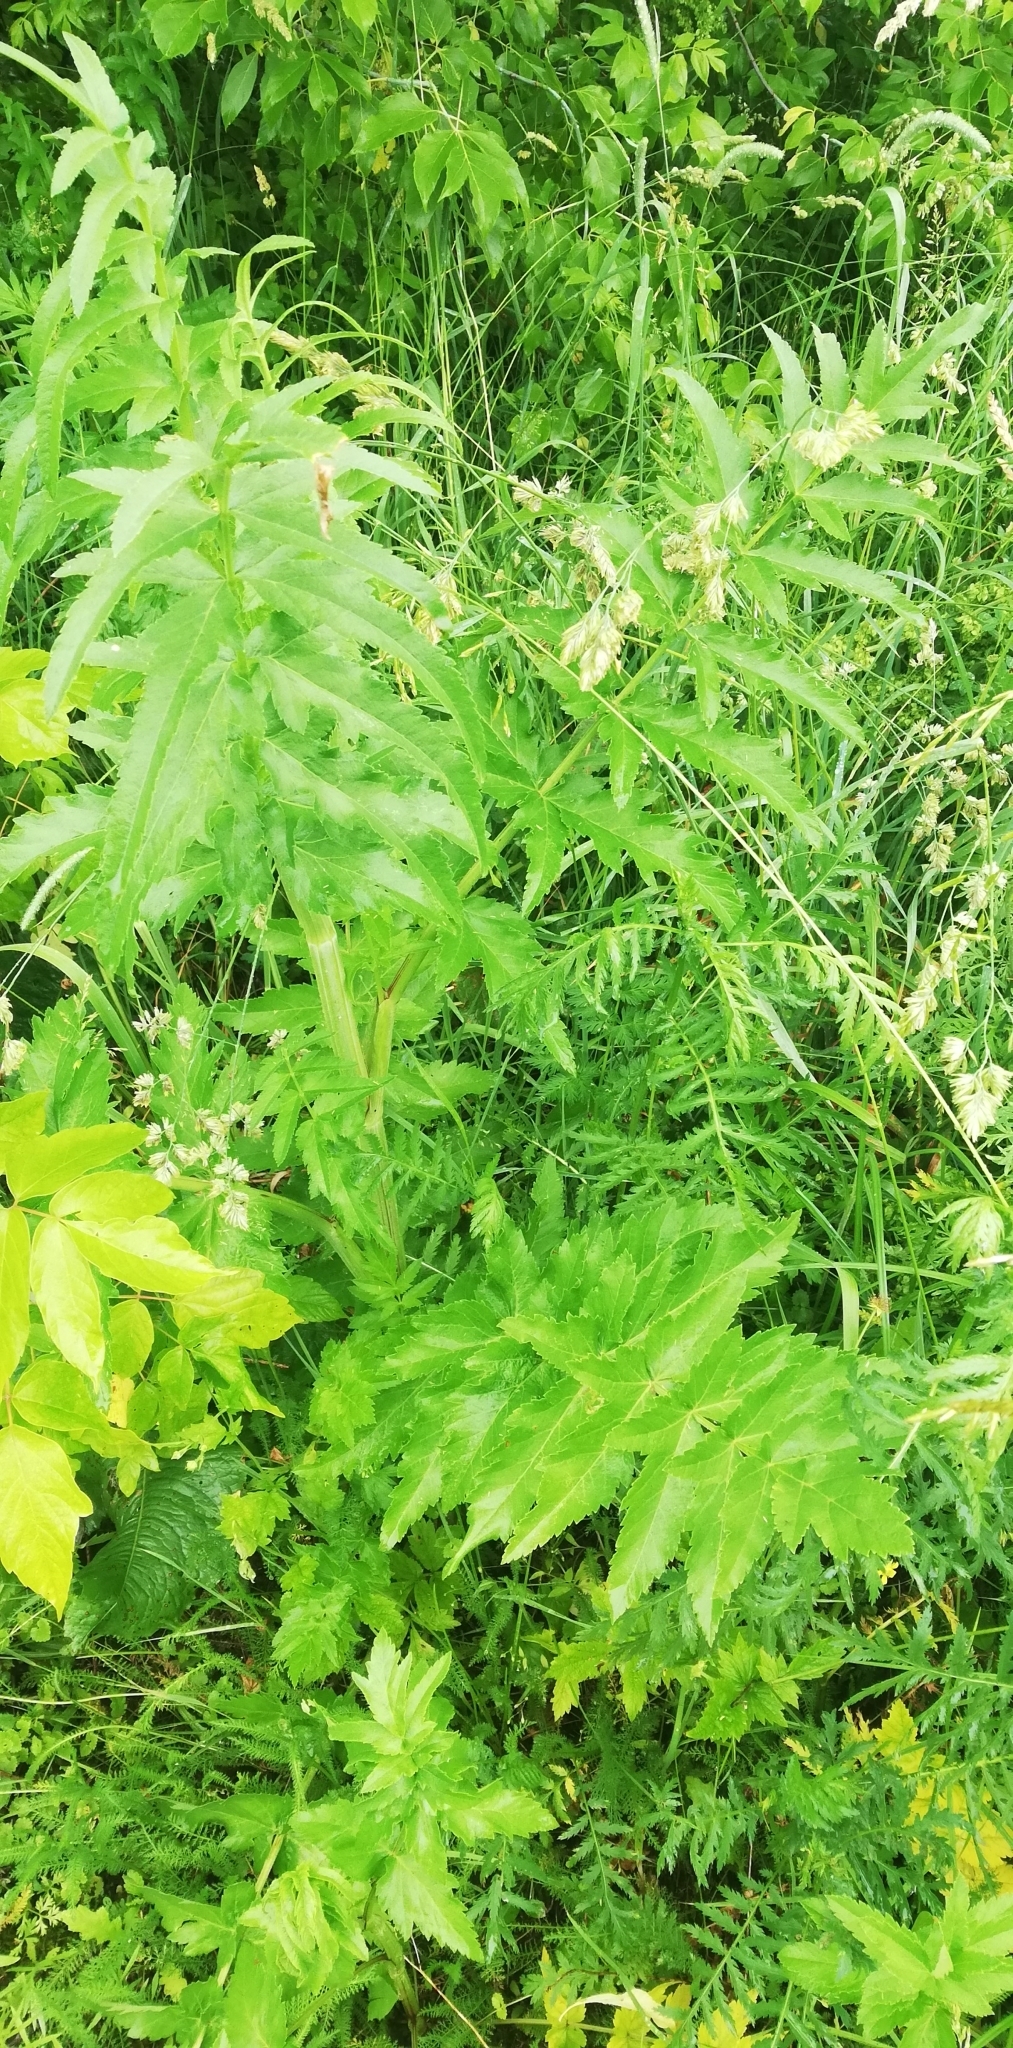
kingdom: Plantae
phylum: Tracheophyta
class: Magnoliopsida
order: Apiales
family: Apiaceae
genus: Pastinaca
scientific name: Pastinaca sativa
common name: Wild parsnip
